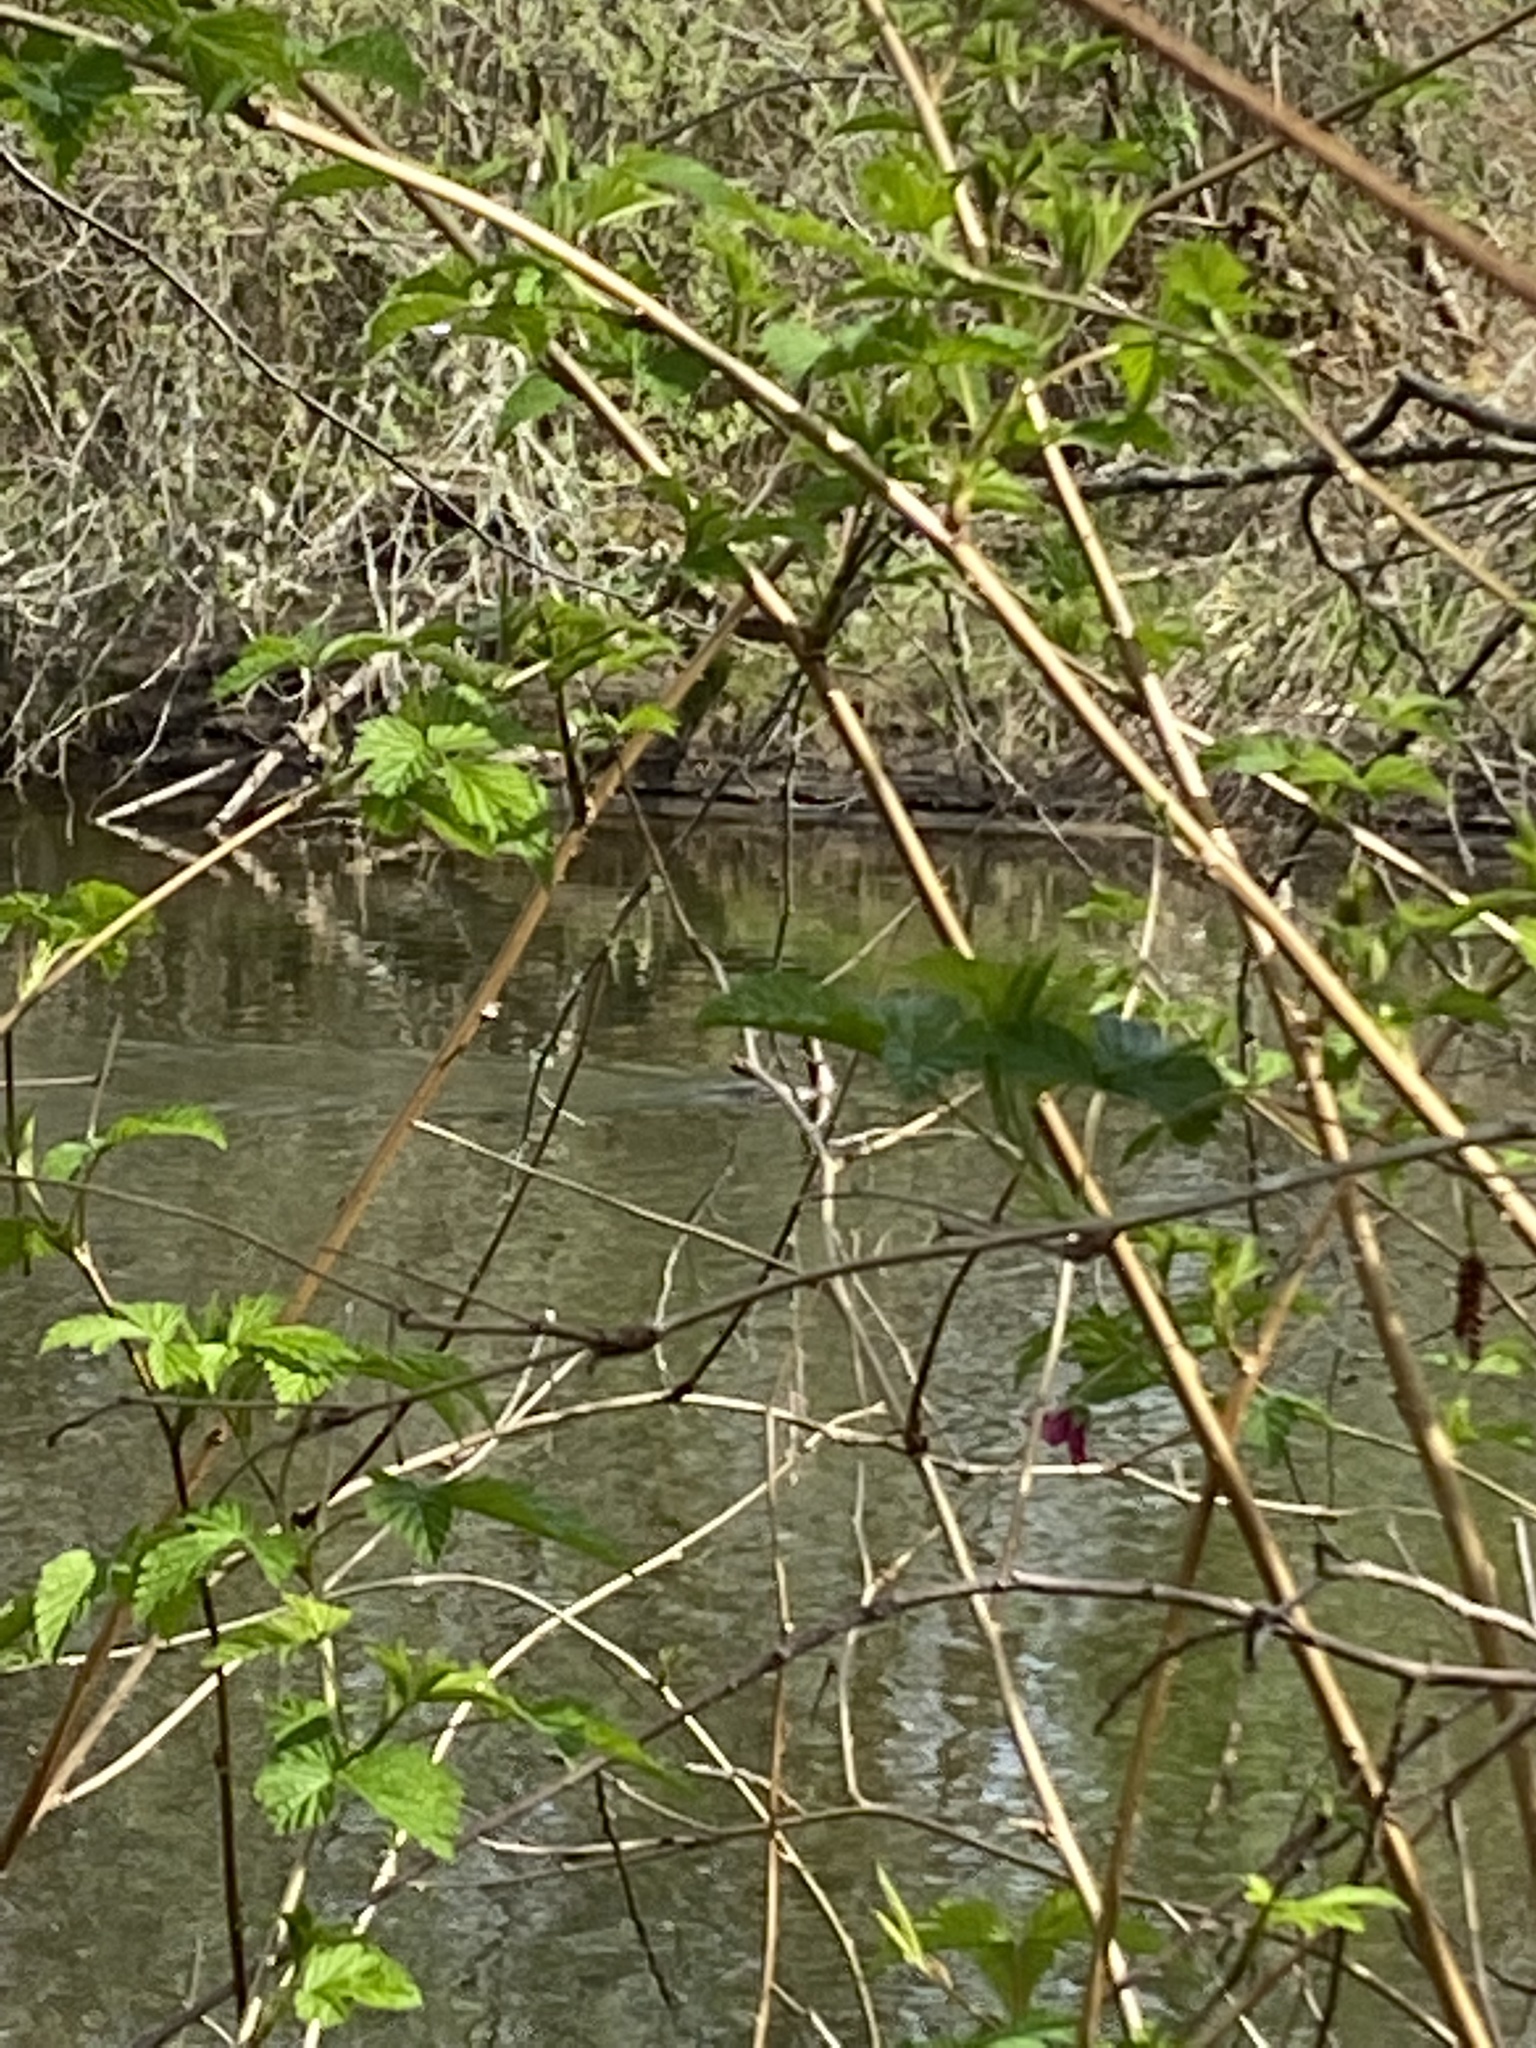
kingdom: Animalia
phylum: Chordata
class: Aves
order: Suliformes
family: Phalacrocoracidae
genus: Phalacrocorax
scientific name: Phalacrocorax auritus
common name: Double-crested cormorant
